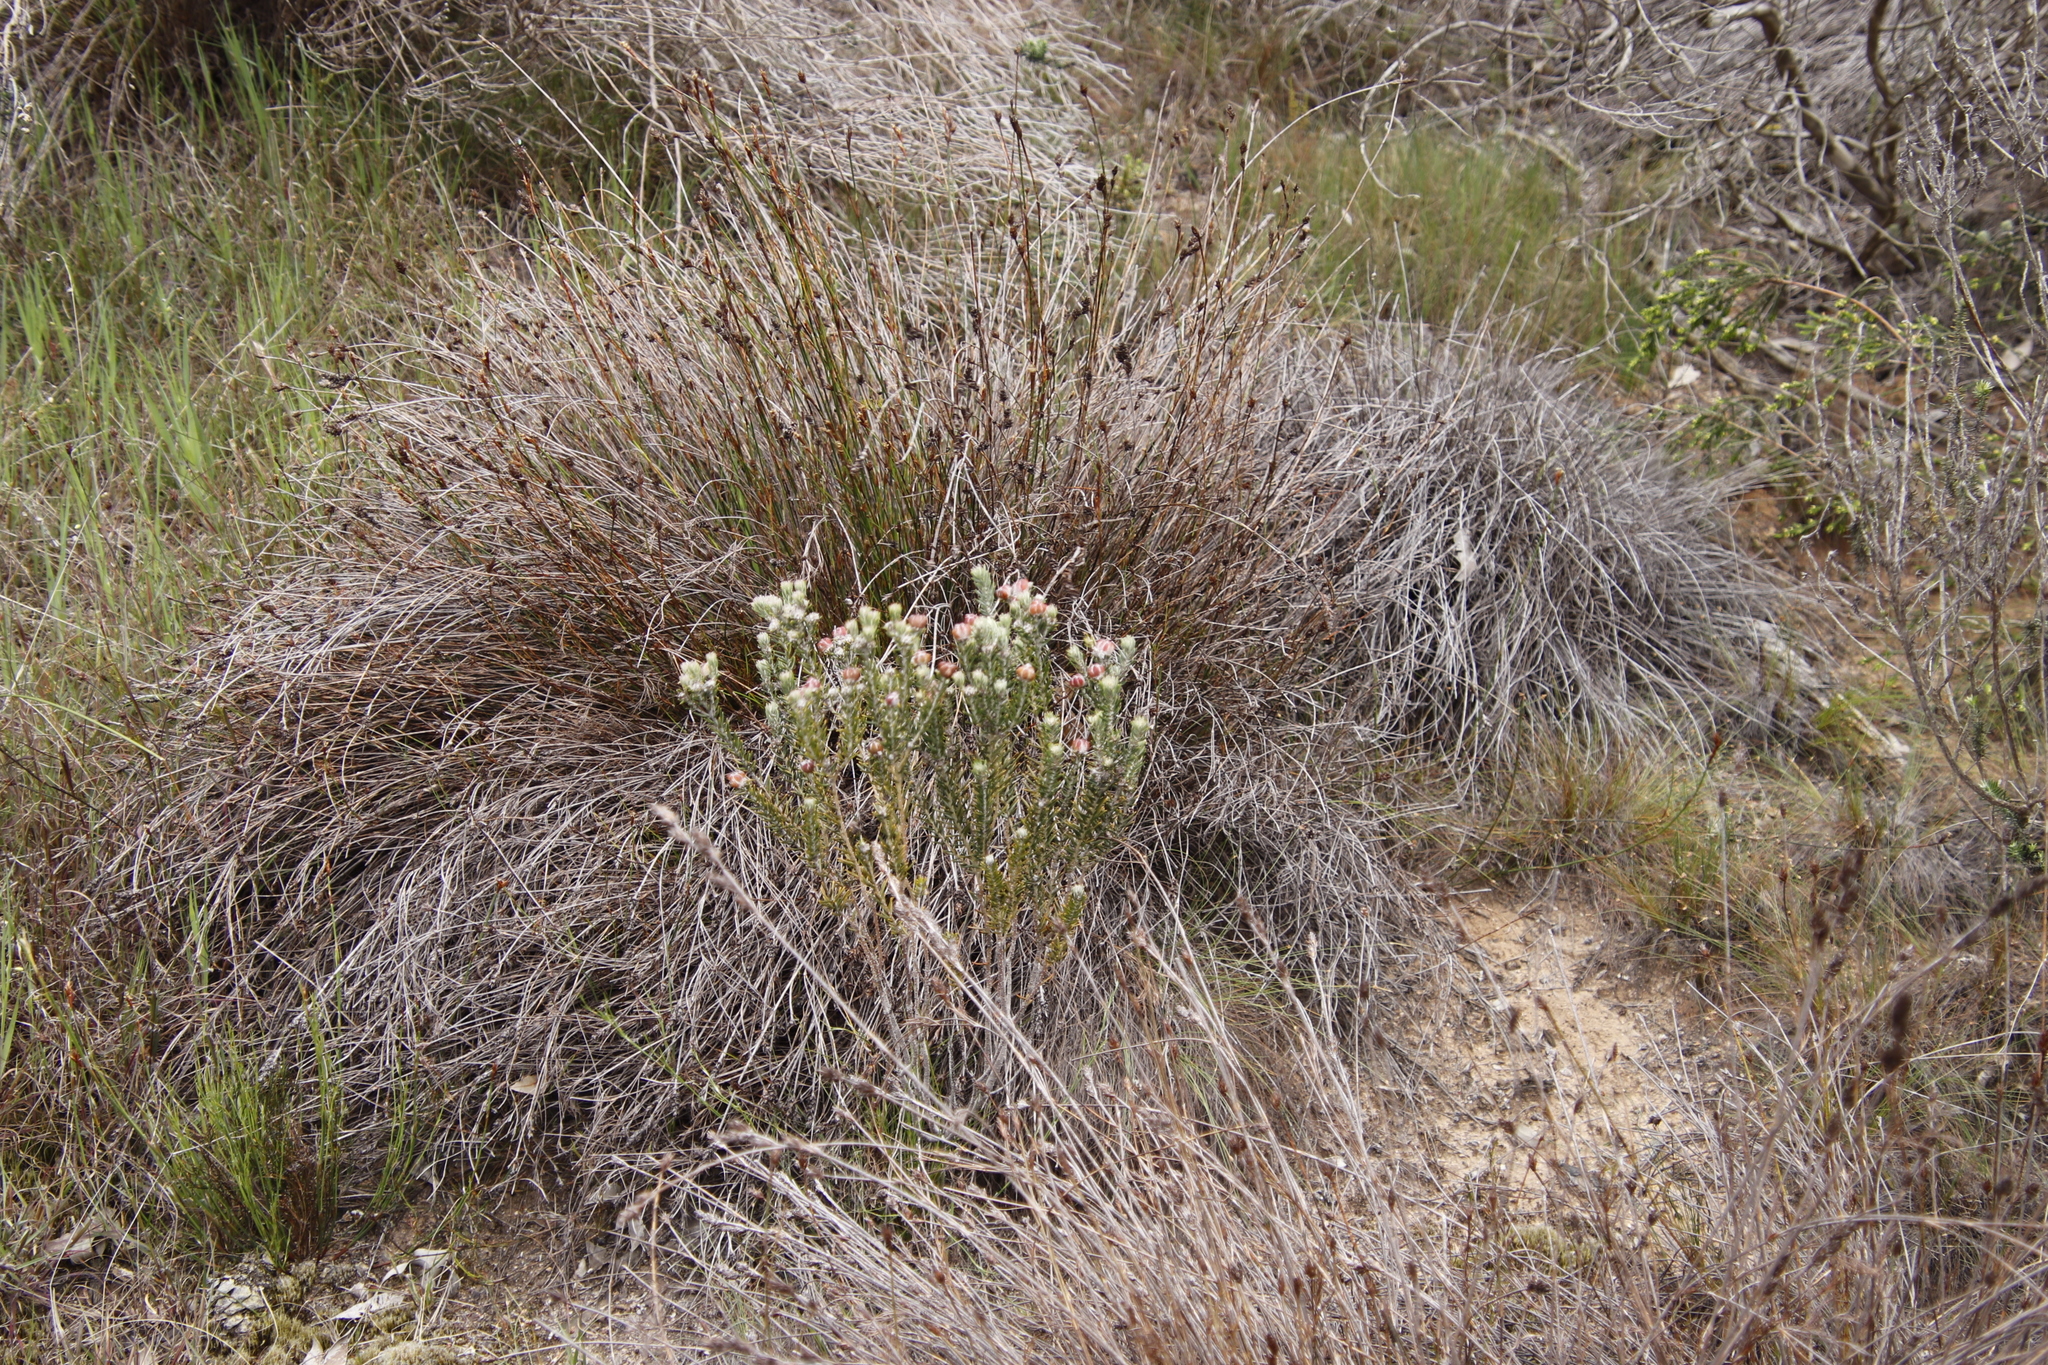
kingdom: Plantae
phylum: Tracheophyta
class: Magnoliopsida
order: Rosales
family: Rhamnaceae
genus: Trichocephalus
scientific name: Trichocephalus stipularis
